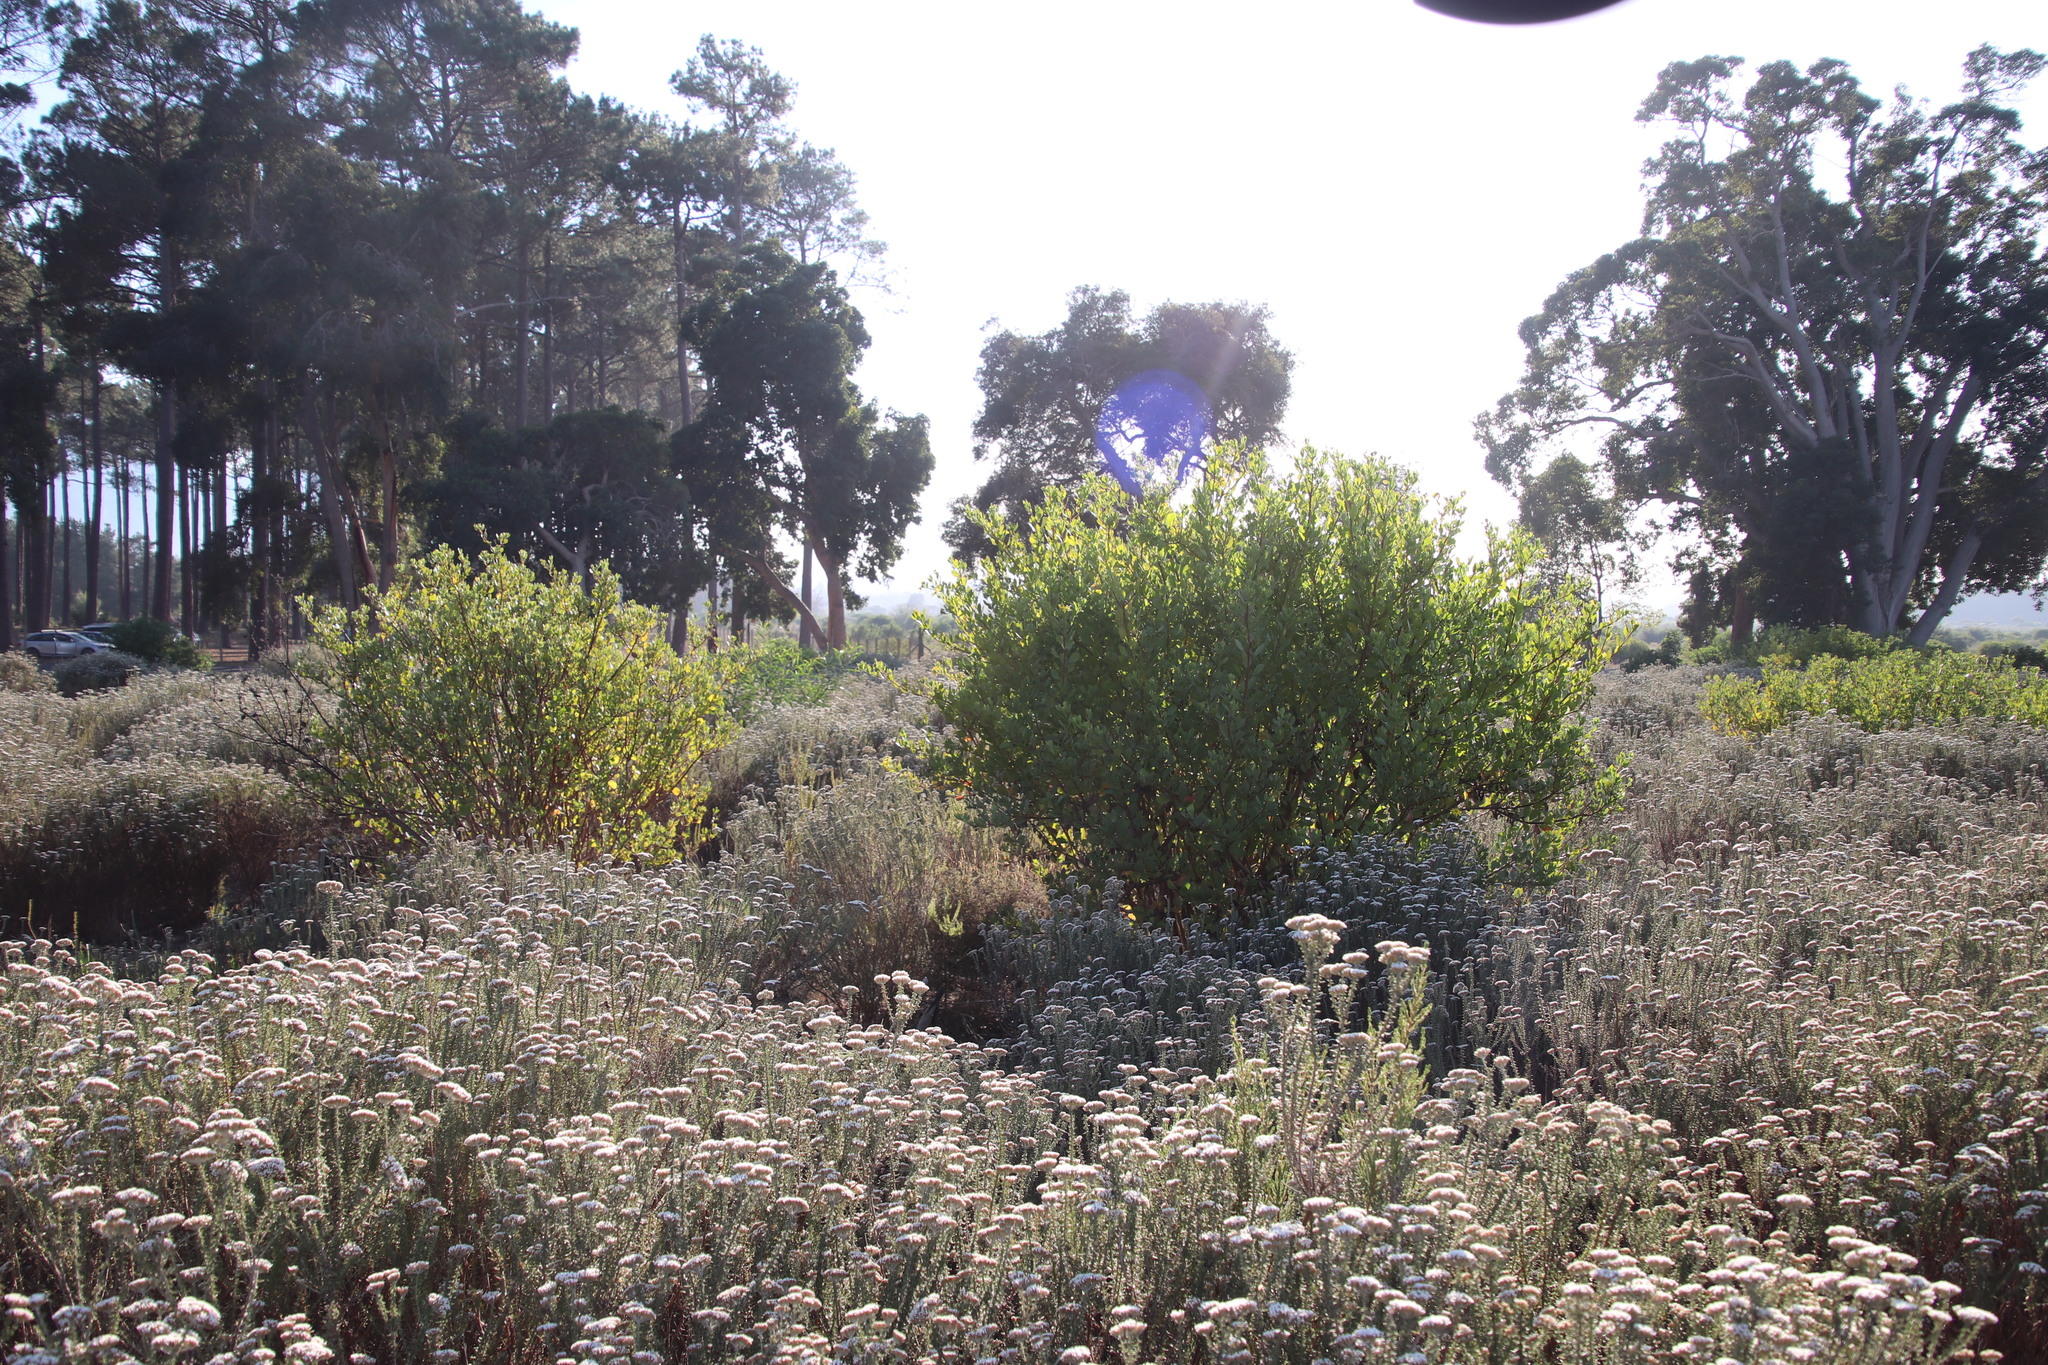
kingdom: Plantae
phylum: Tracheophyta
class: Magnoliopsida
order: Asterales
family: Asteraceae
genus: Osteospermum
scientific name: Osteospermum moniliferum
